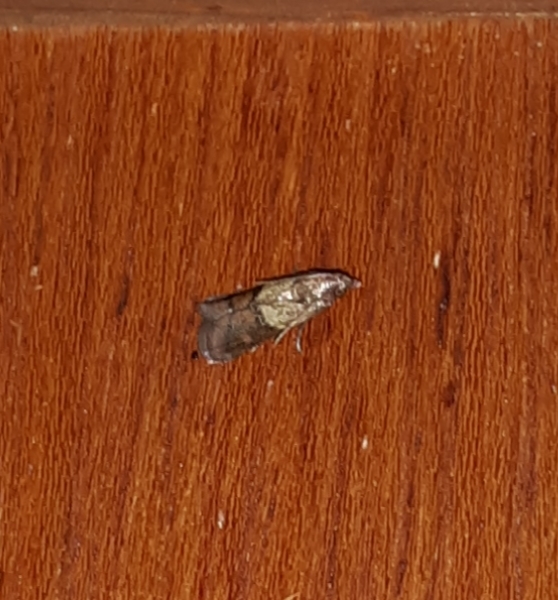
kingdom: Animalia
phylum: Arthropoda
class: Insecta
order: Lepidoptera
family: Pyralidae
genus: Plodia
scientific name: Plodia interpunctella
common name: Indian meal moth
